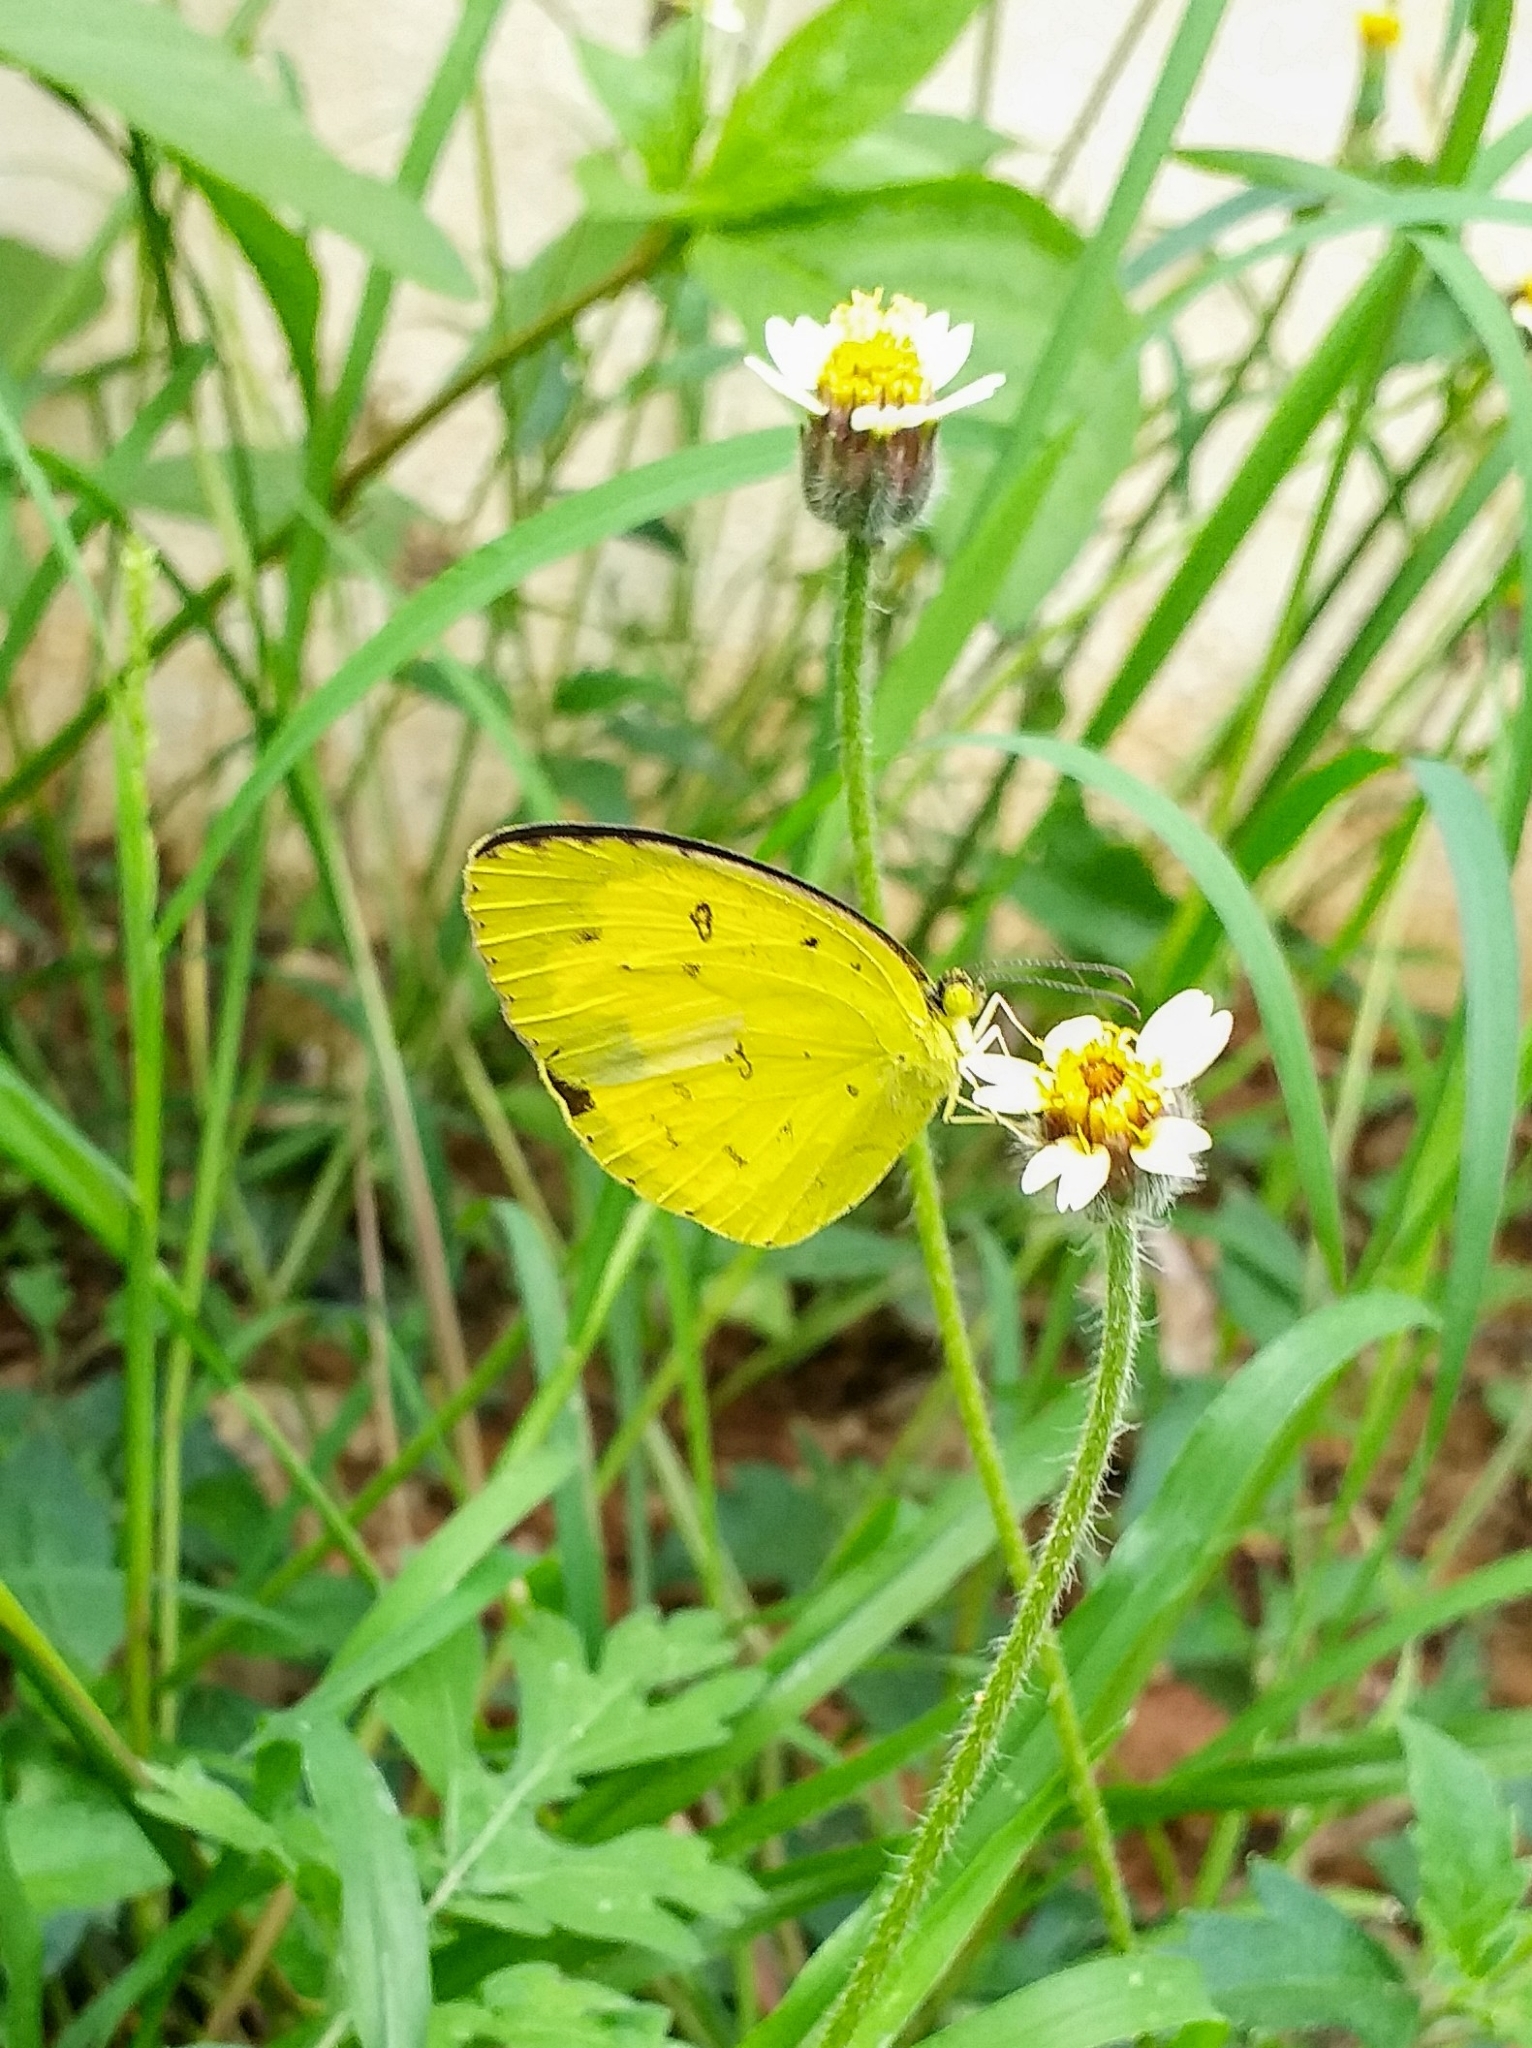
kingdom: Animalia
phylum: Arthropoda
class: Insecta
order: Lepidoptera
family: Pieridae
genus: Eurema
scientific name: Eurema hecabe
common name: Pale grass yellow
